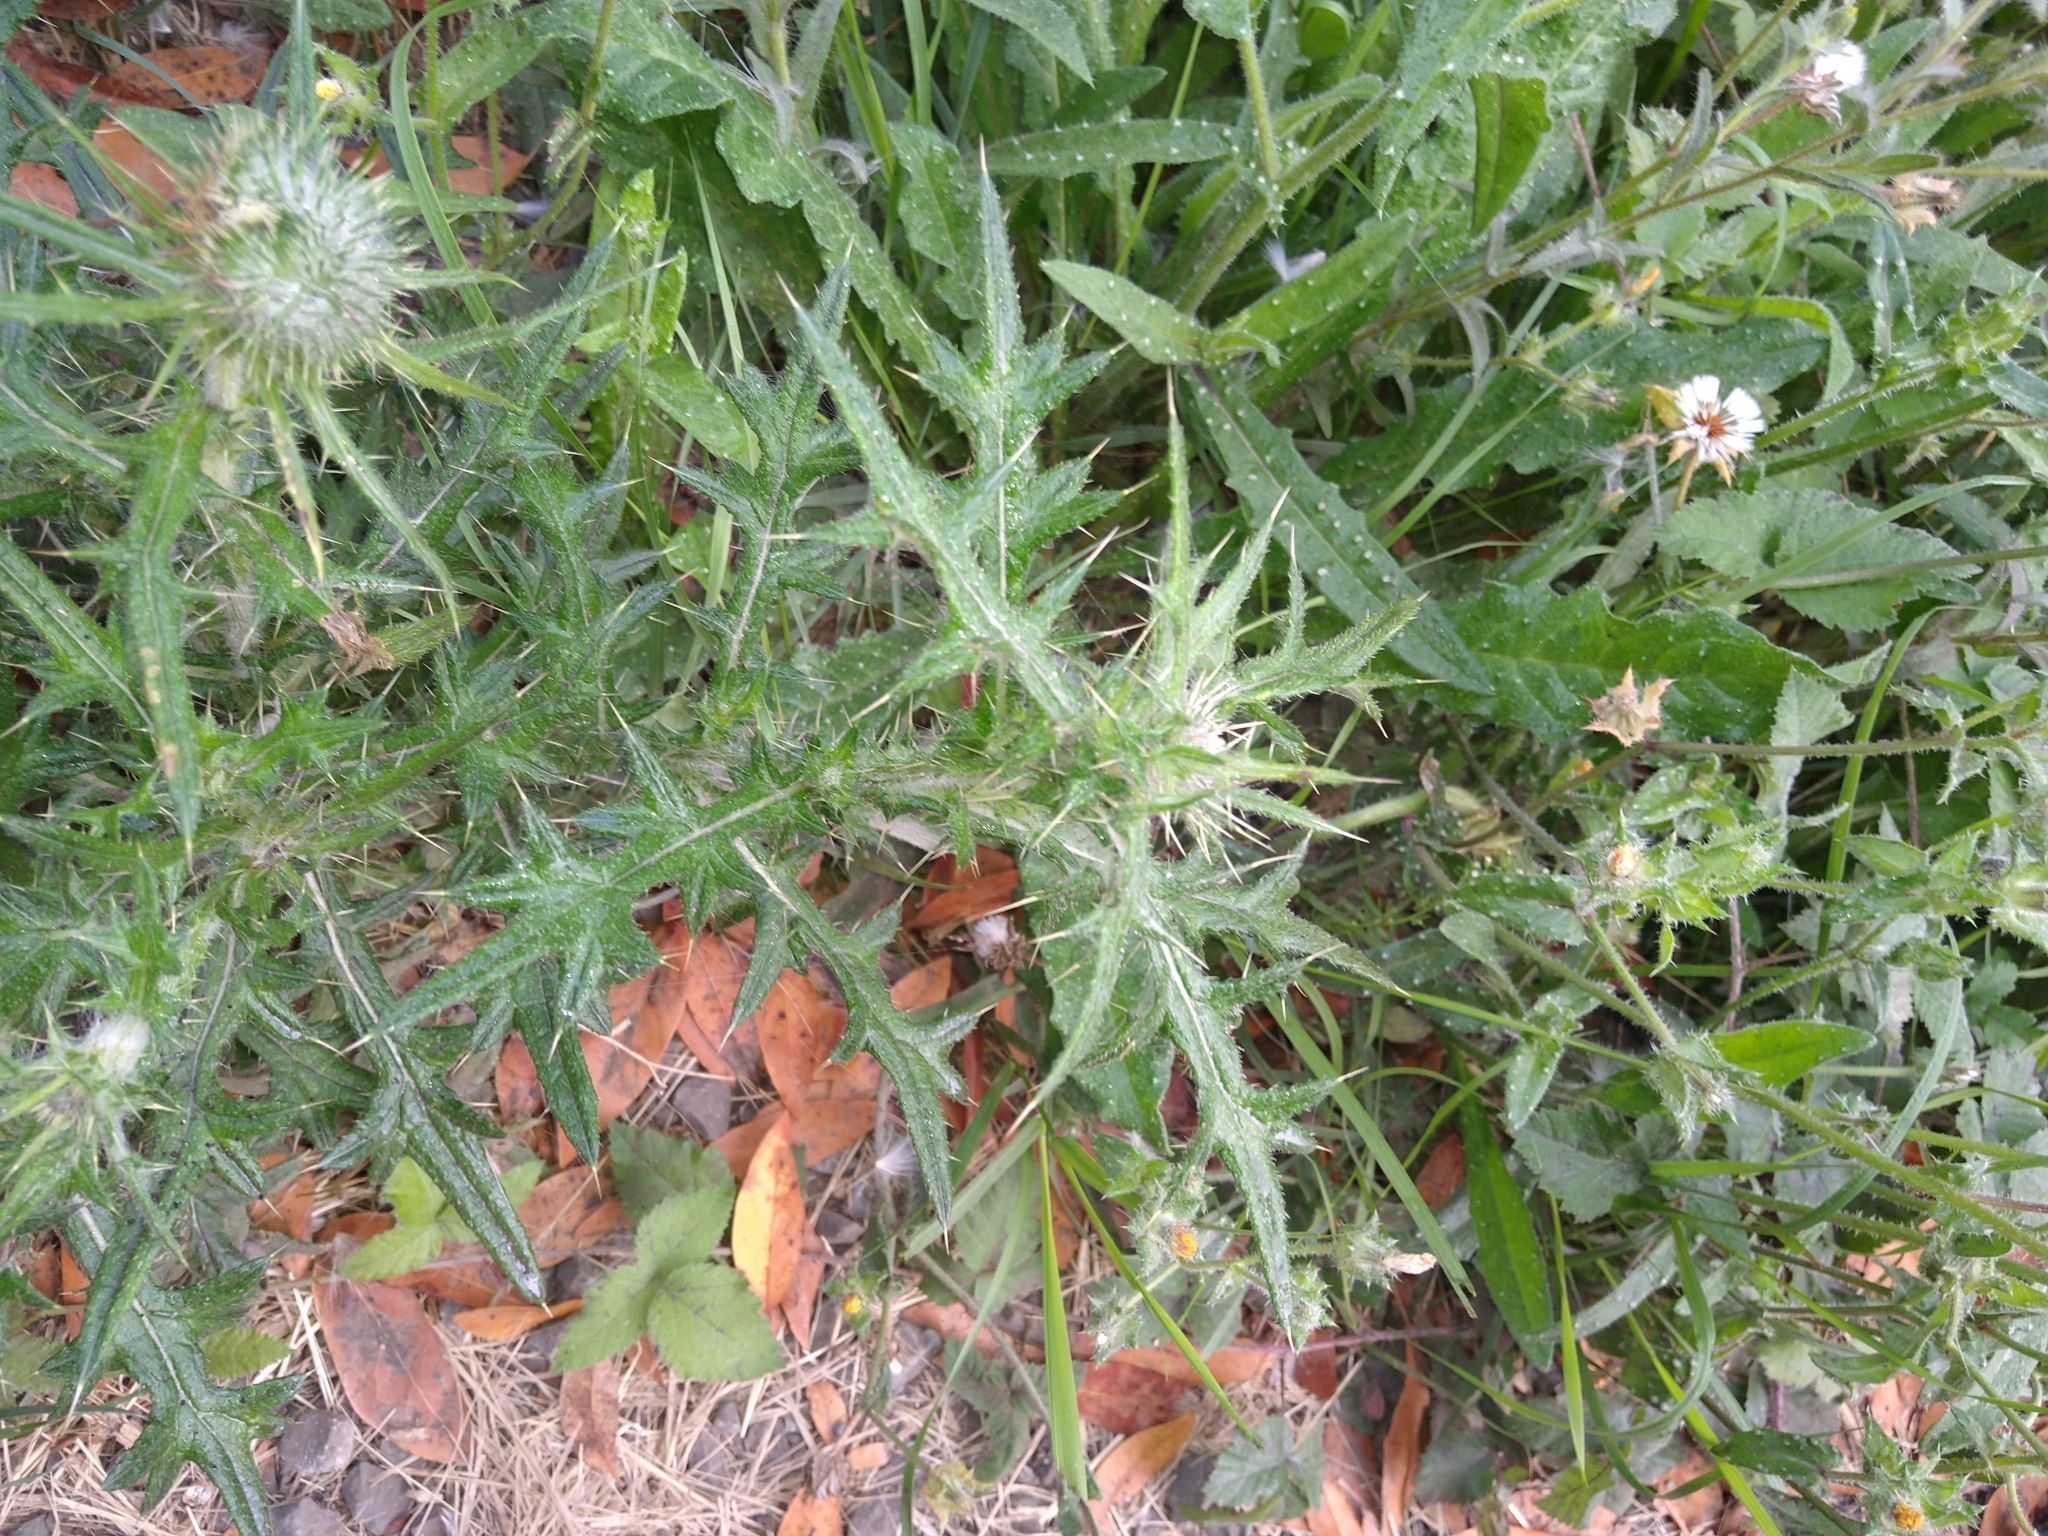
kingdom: Plantae
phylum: Tracheophyta
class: Magnoliopsida
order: Asterales
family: Asteraceae
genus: Cirsium
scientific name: Cirsium vulgare
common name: Bull thistle
